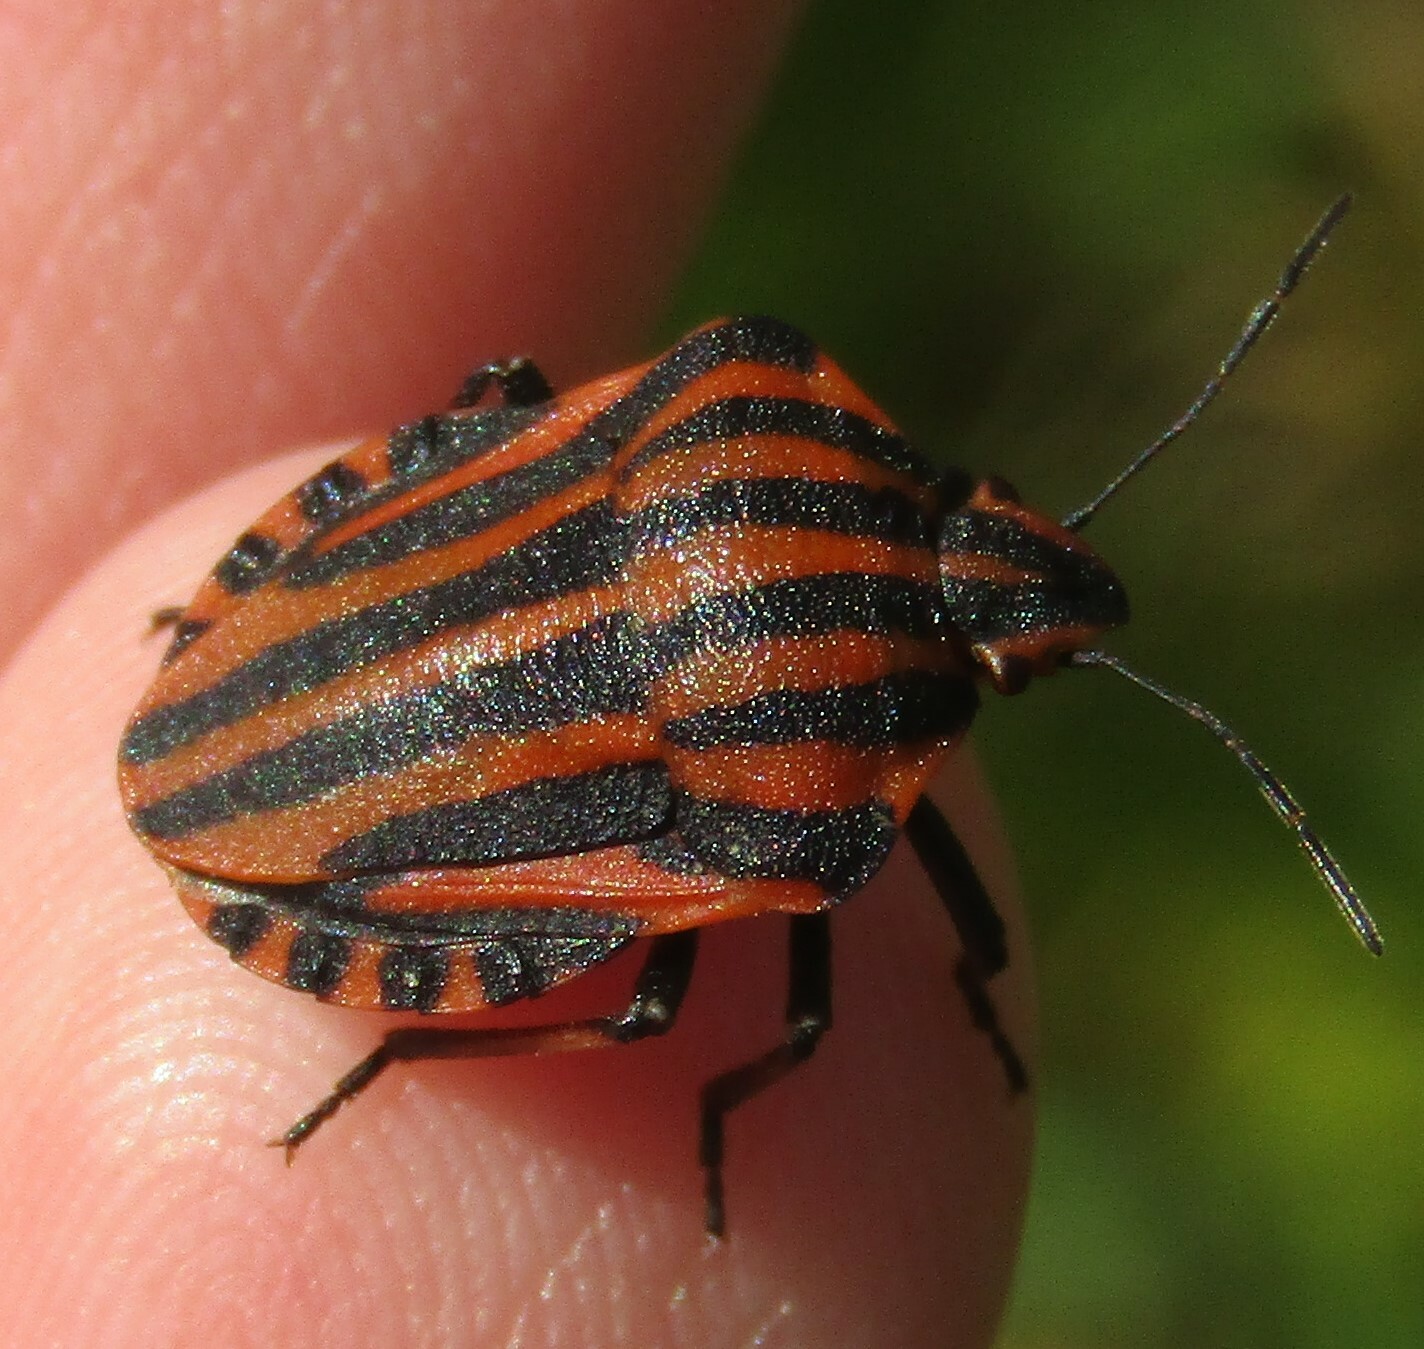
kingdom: Animalia
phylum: Arthropoda
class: Insecta
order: Hemiptera
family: Pentatomidae
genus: Graphosoma
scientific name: Graphosoma italicum
